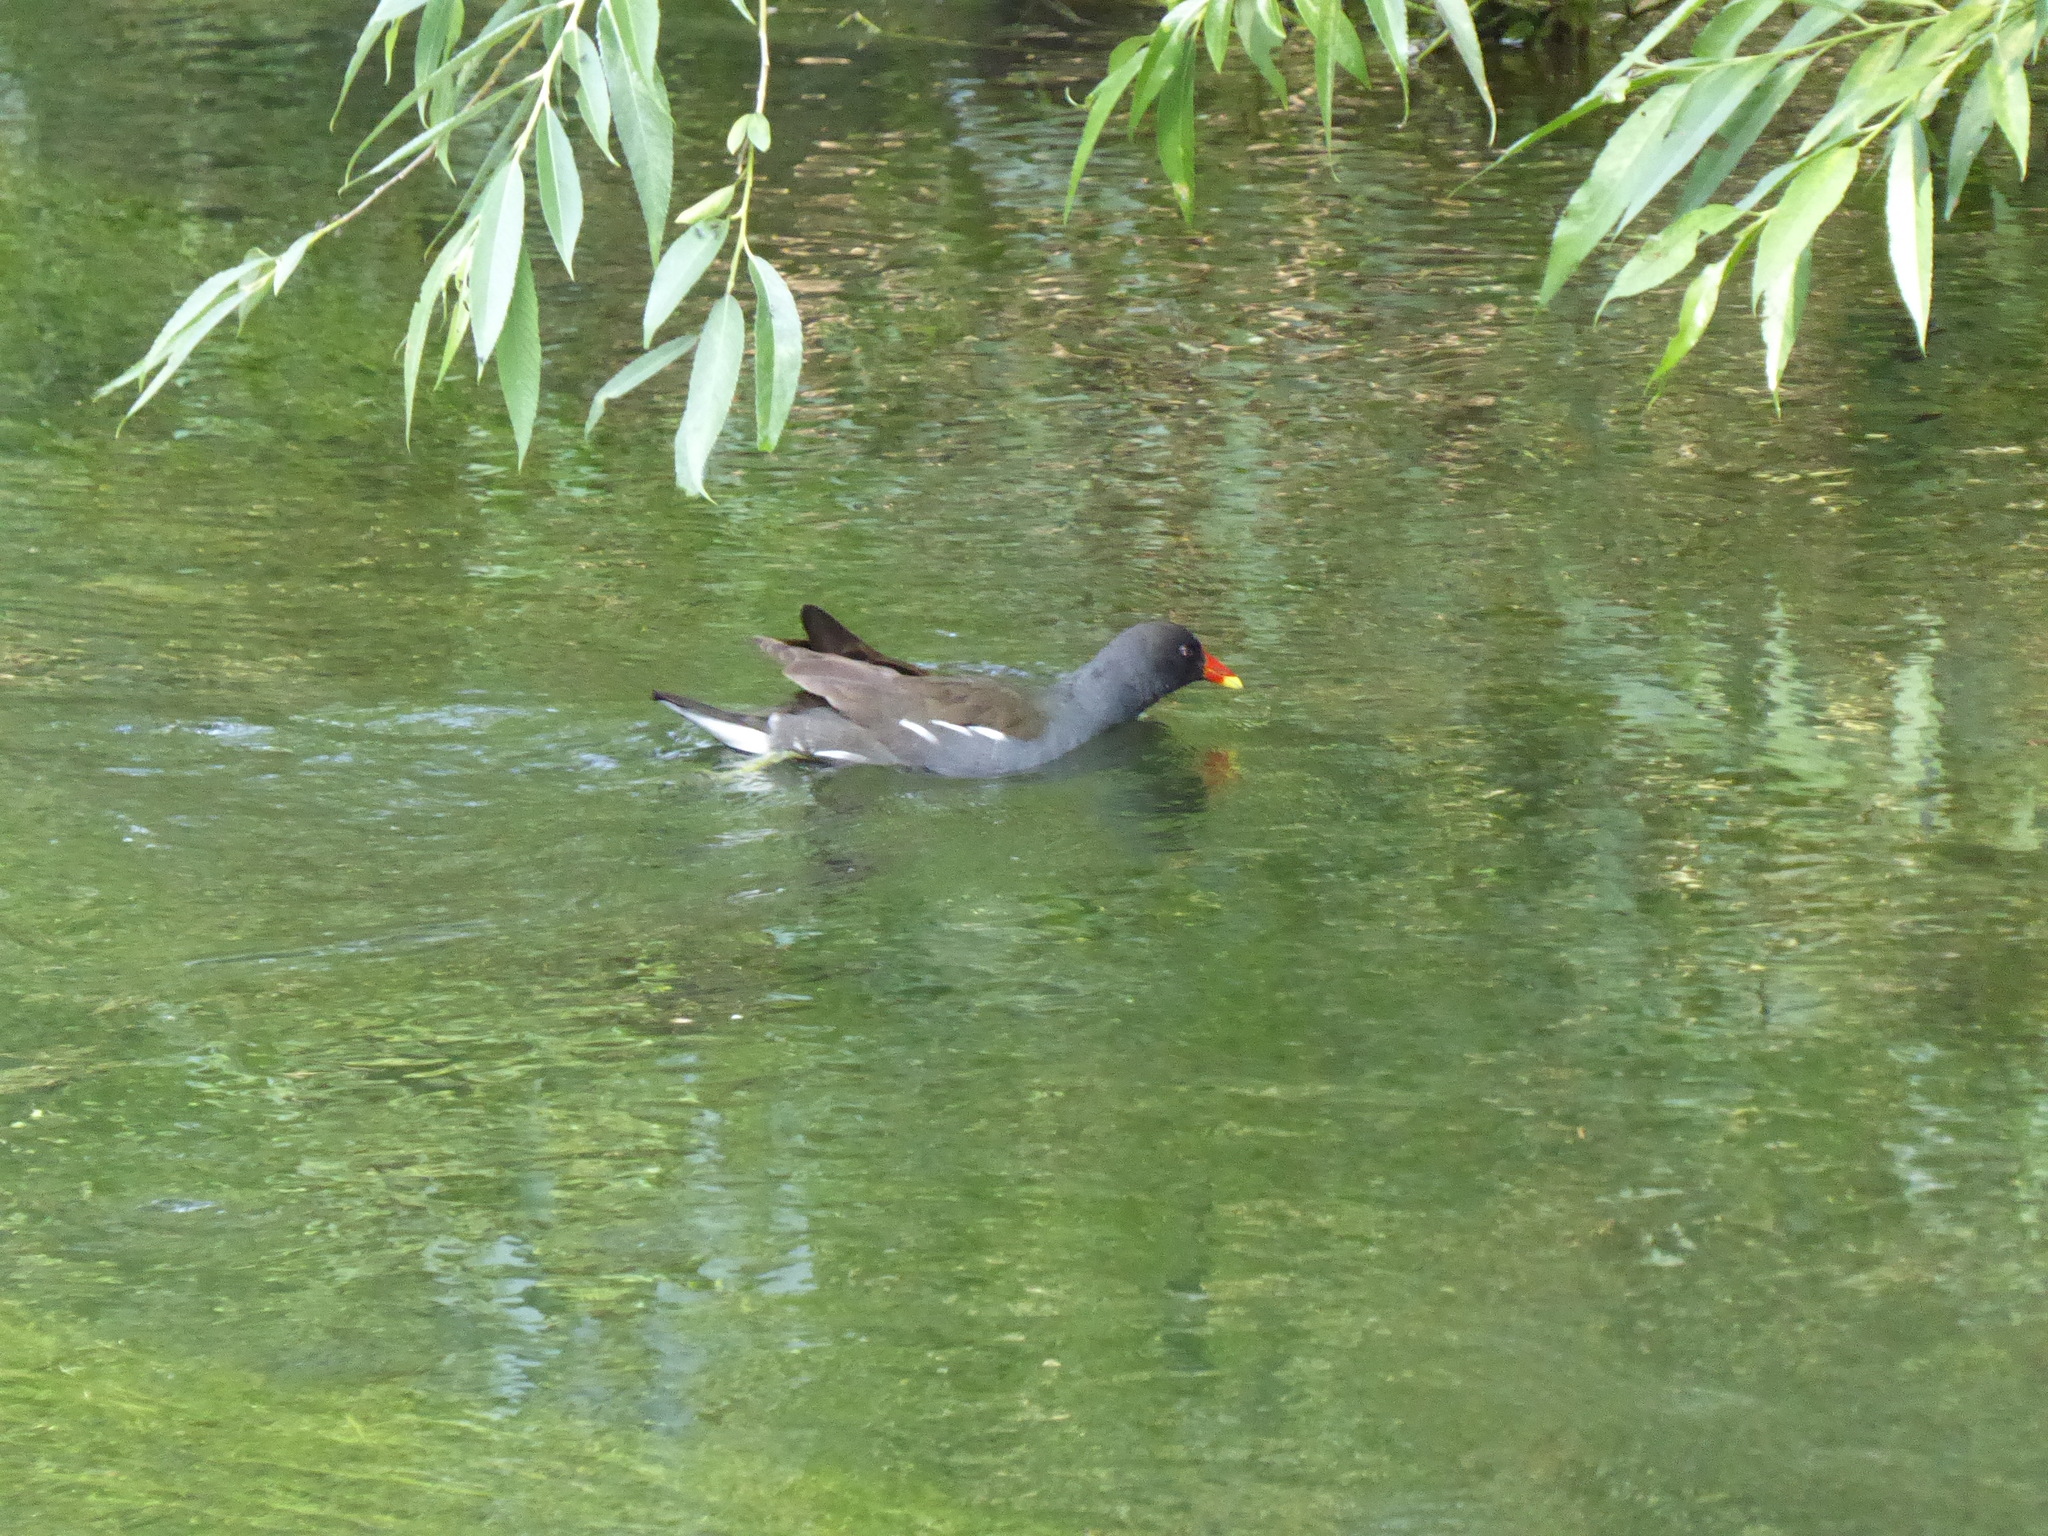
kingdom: Animalia
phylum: Chordata
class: Aves
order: Gruiformes
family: Rallidae
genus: Gallinula
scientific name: Gallinula chloropus
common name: Common moorhen
